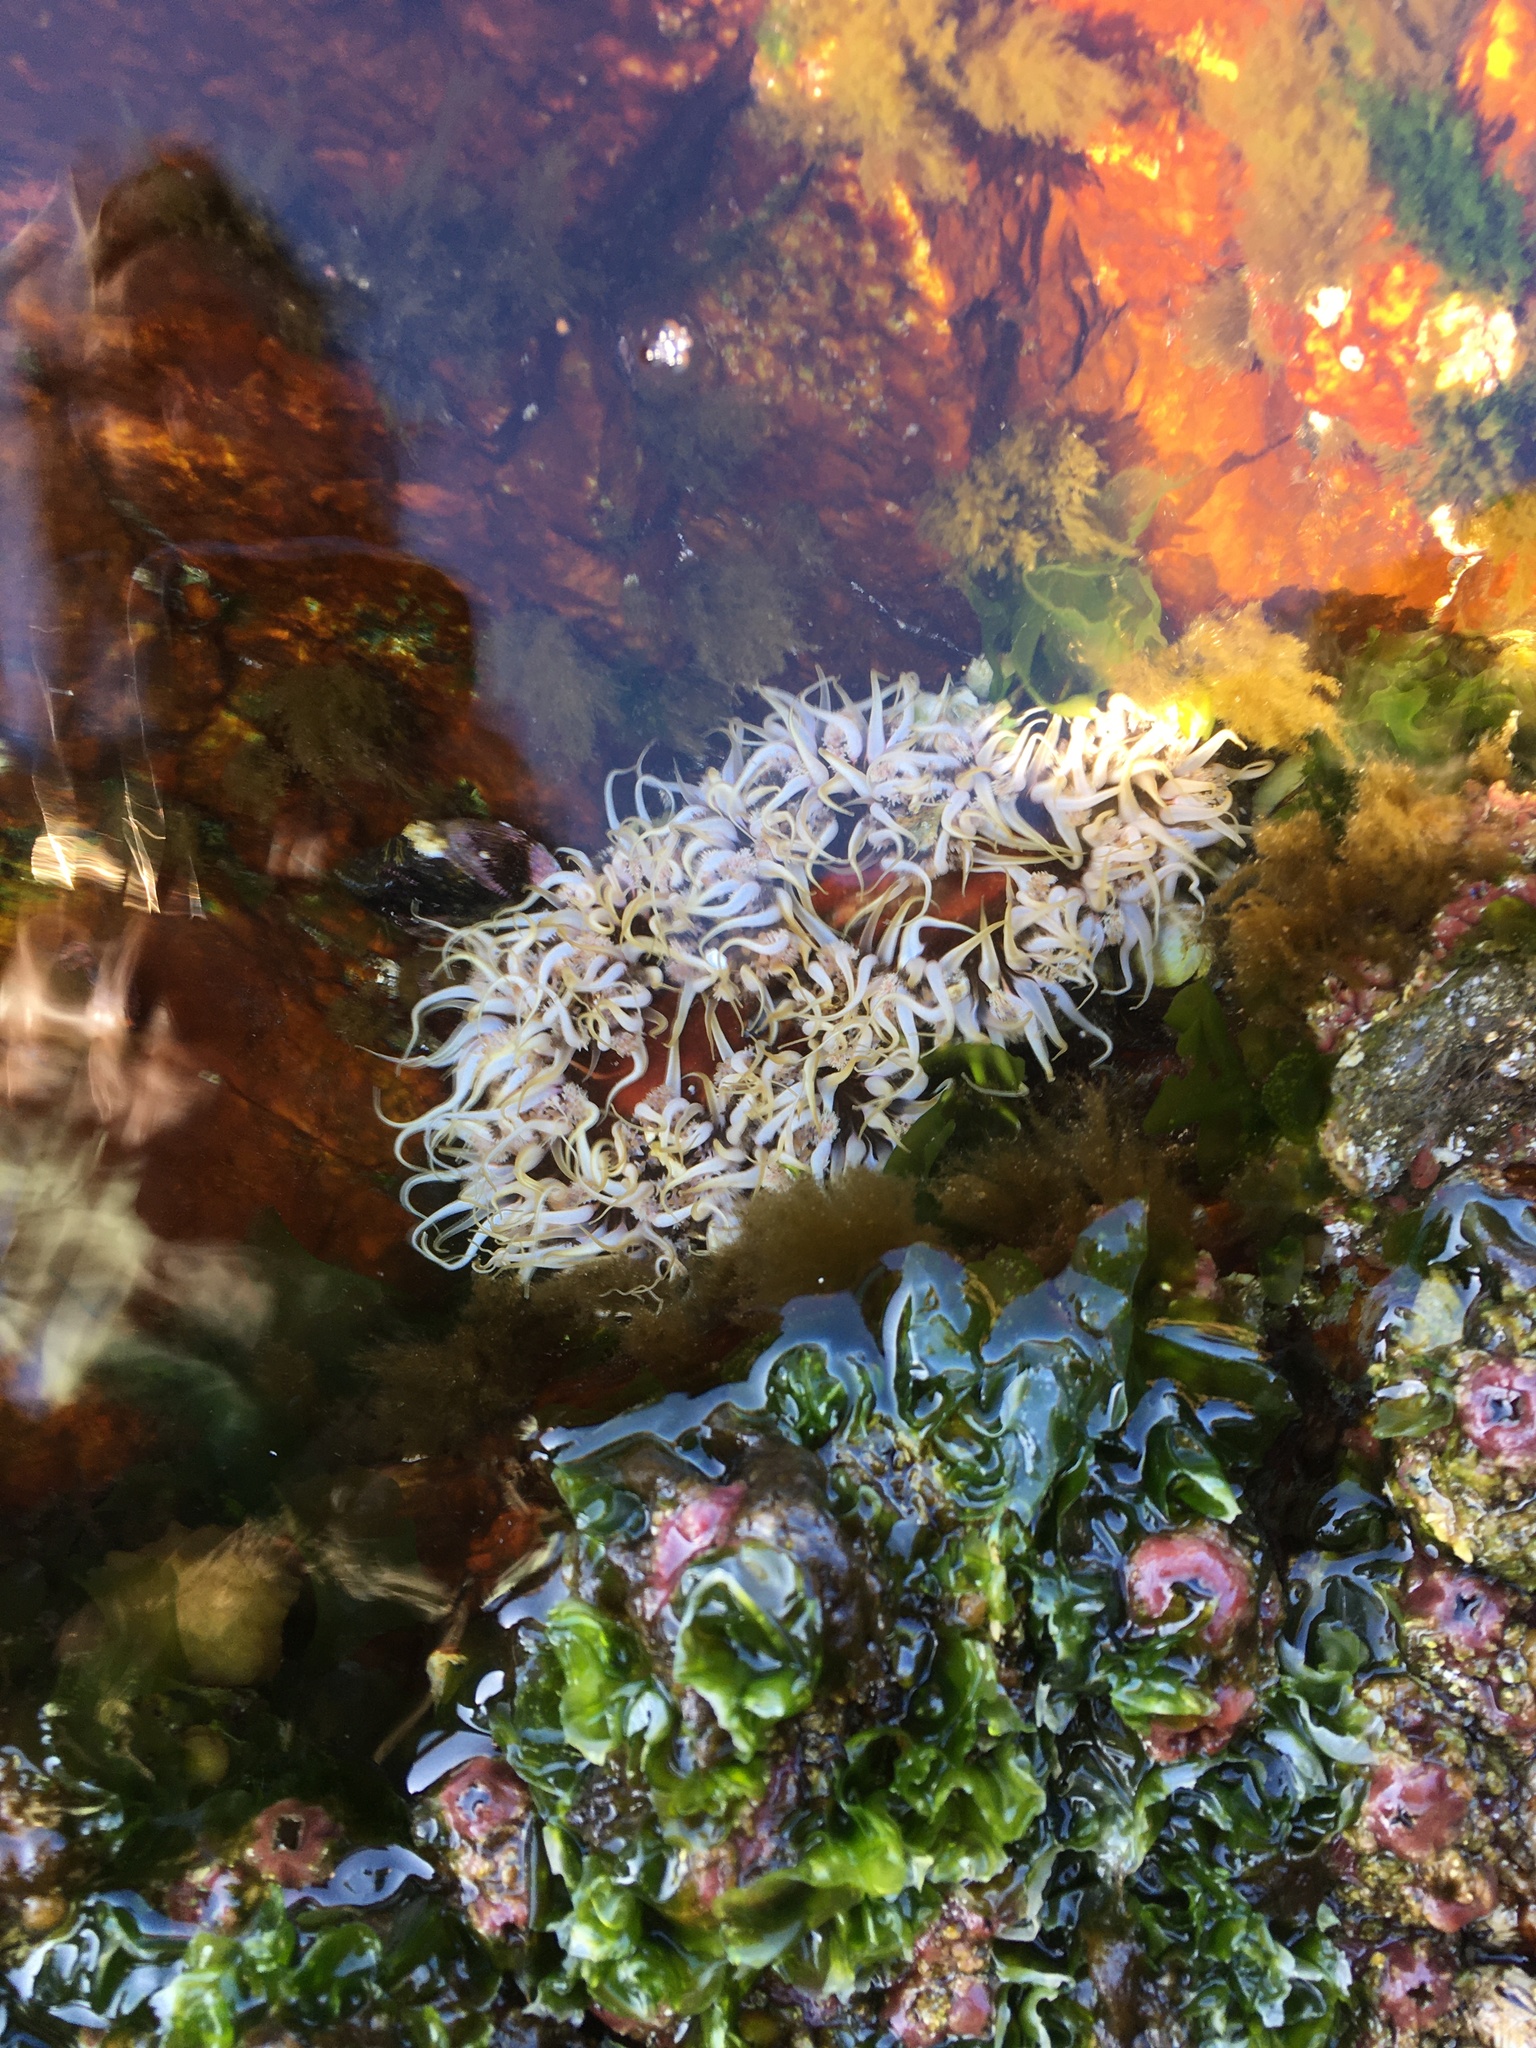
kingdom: Animalia
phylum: Cnidaria
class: Anthozoa
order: Actiniaria
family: Actiniidae
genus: Oulactis
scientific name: Oulactis concinnata
